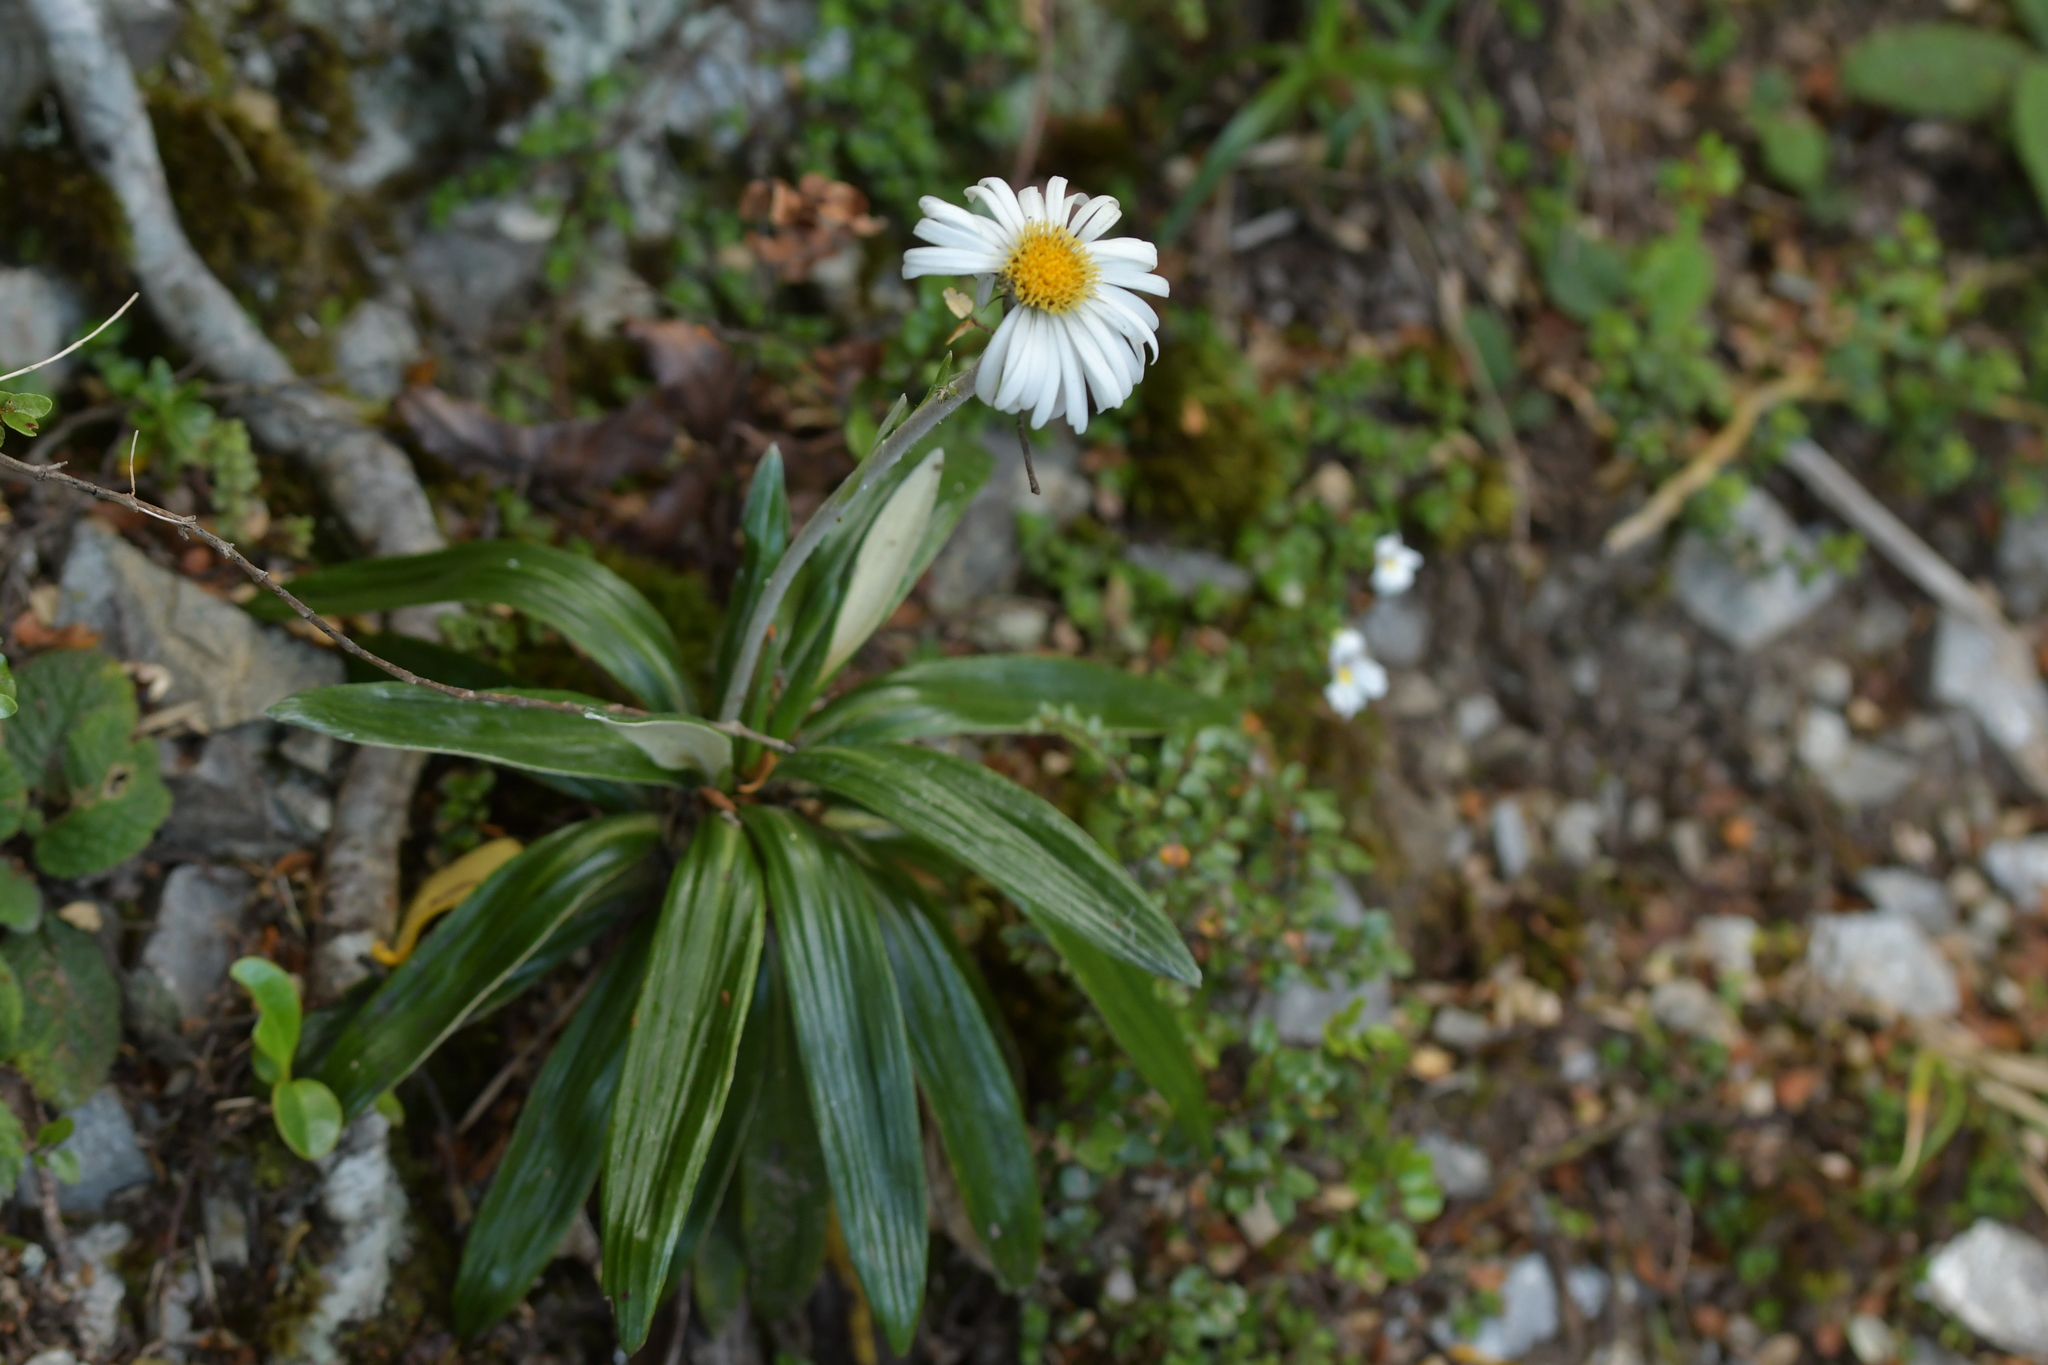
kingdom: Plantae
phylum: Tracheophyta
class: Magnoliopsida
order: Asterales
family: Asteraceae
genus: Celmisia
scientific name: Celmisia spectabilis
